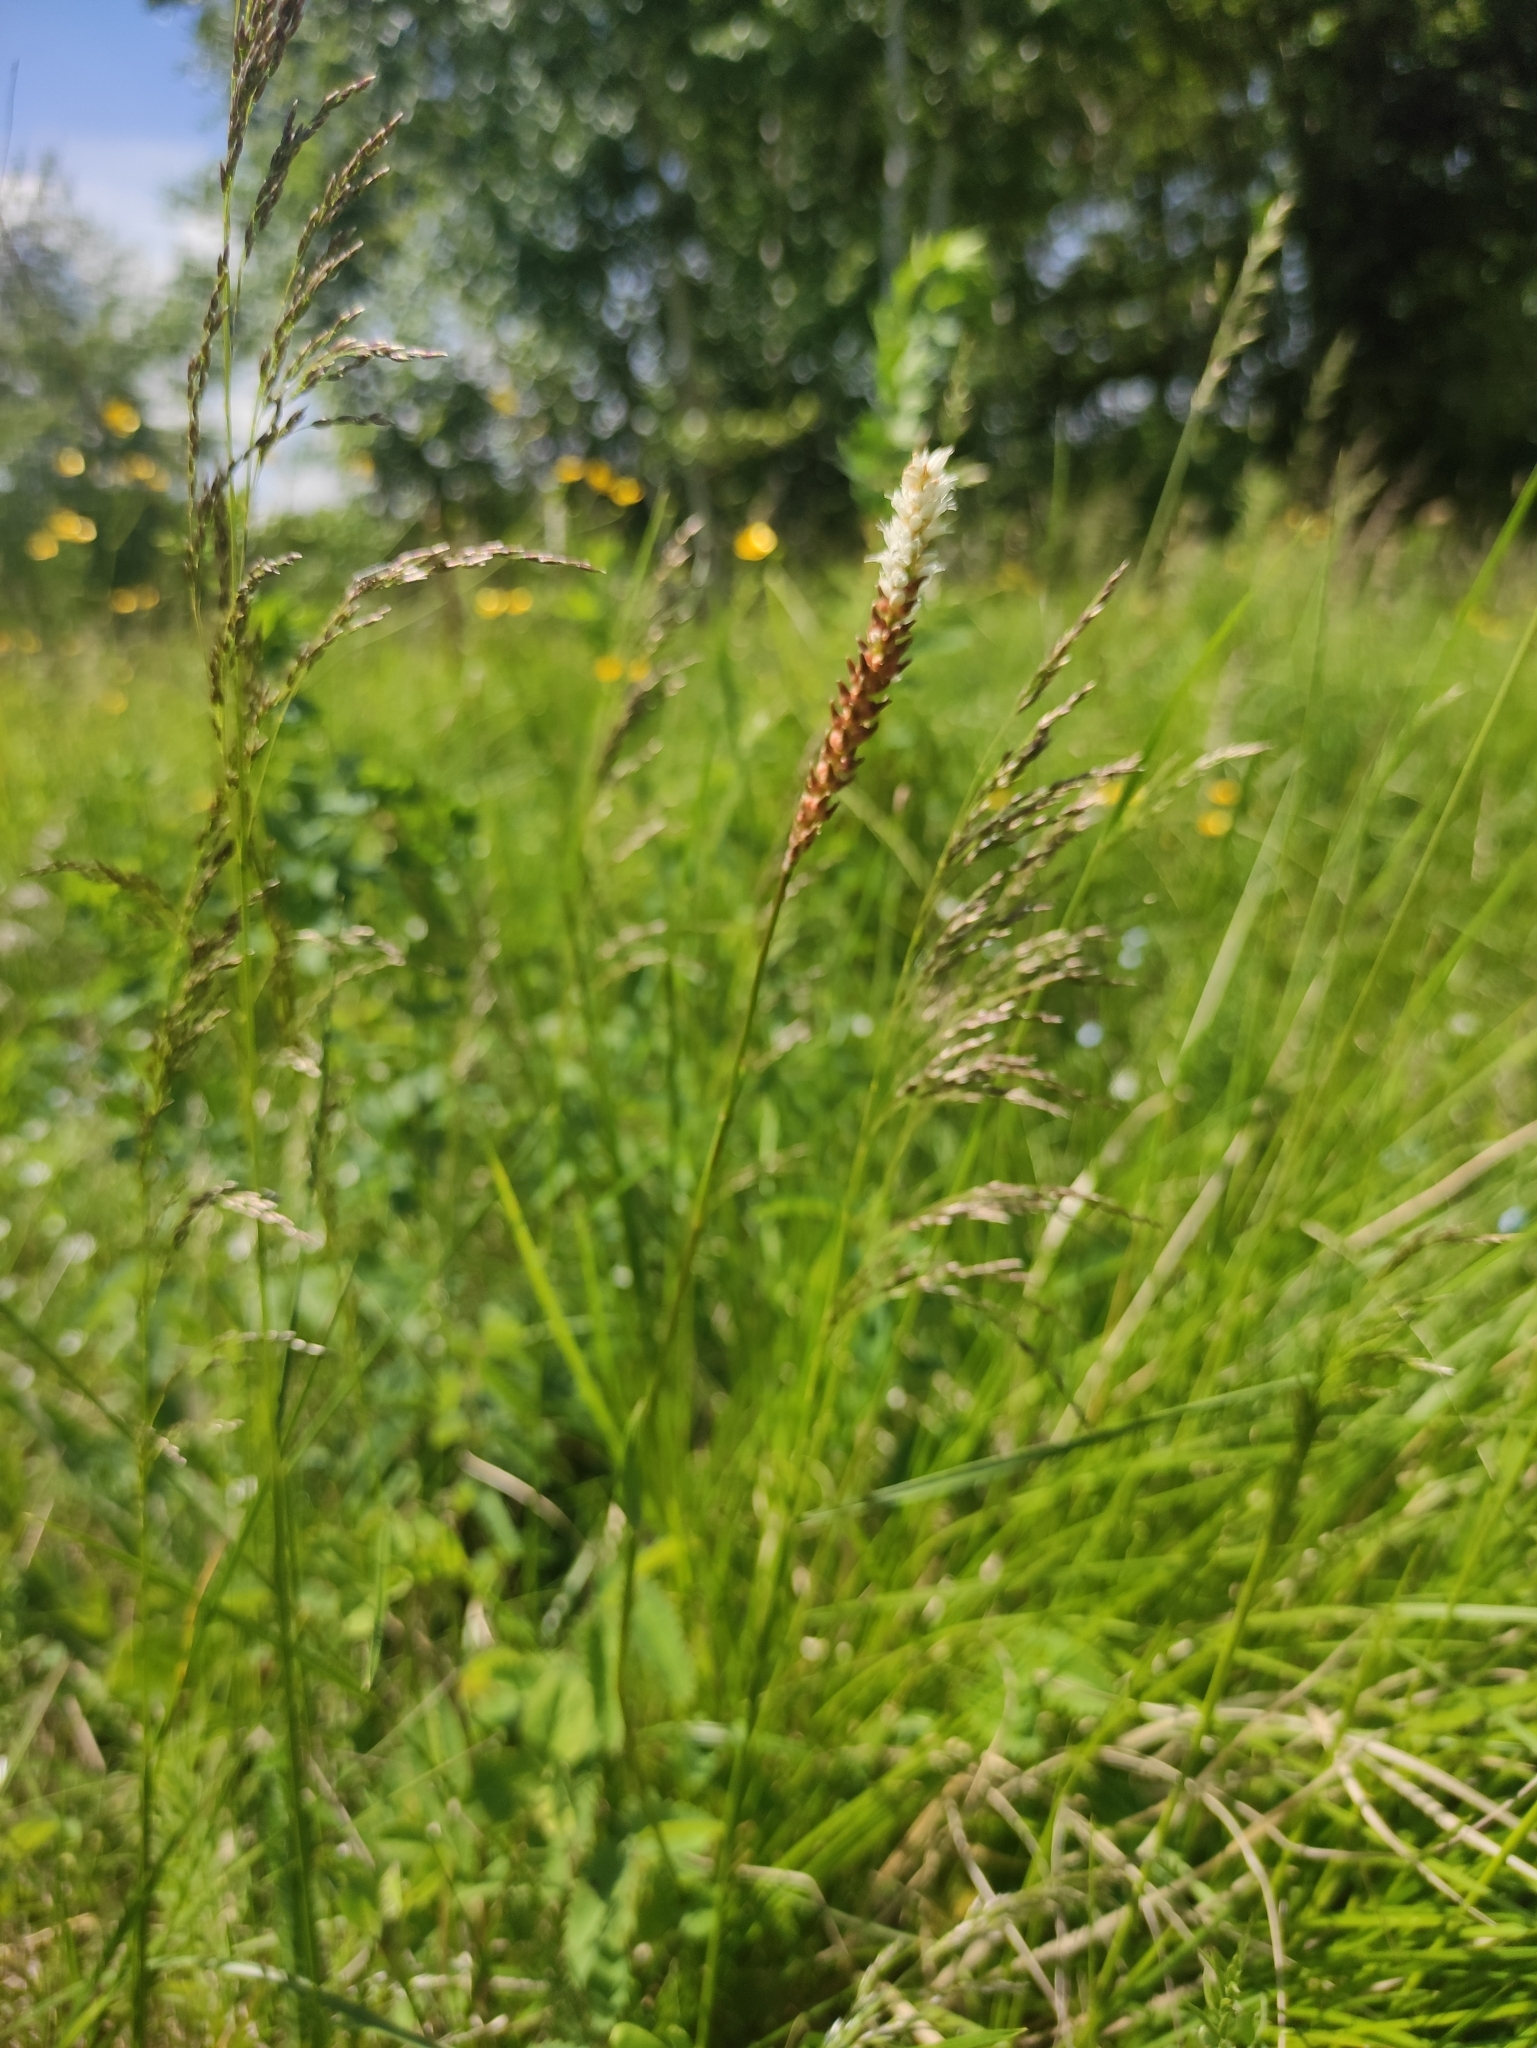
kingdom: Plantae
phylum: Tracheophyta
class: Magnoliopsida
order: Caryophyllales
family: Polygonaceae
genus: Bistorta
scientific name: Bistorta vivipara
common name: Alpine bistort
